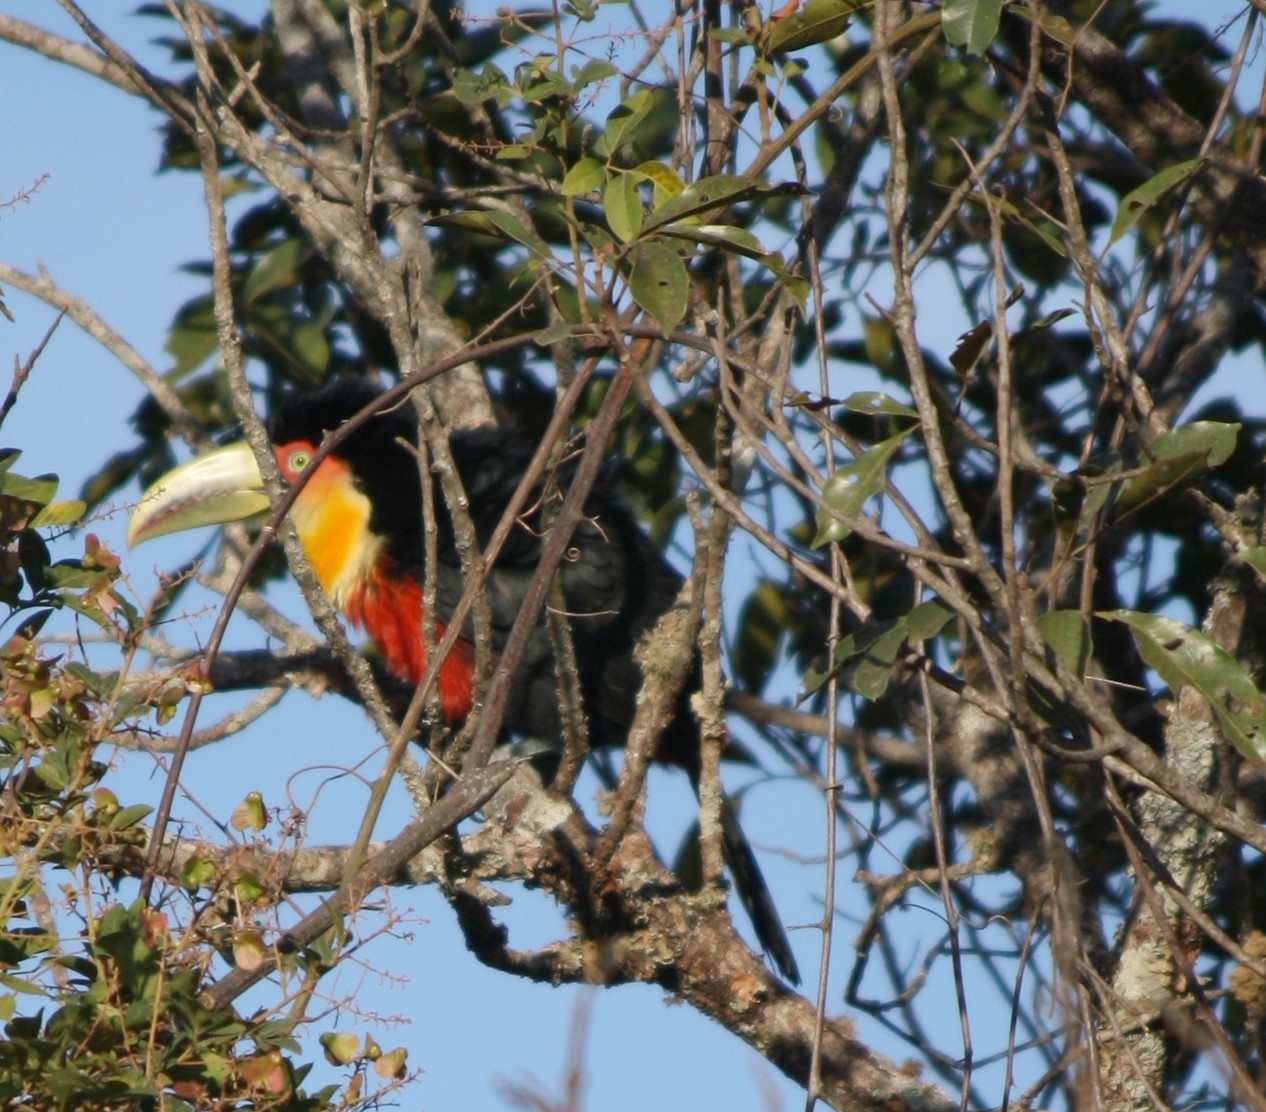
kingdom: Animalia
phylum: Chordata
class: Aves
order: Piciformes
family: Ramphastidae
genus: Ramphastos
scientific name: Ramphastos dicolorus
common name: Green-billed toucan
